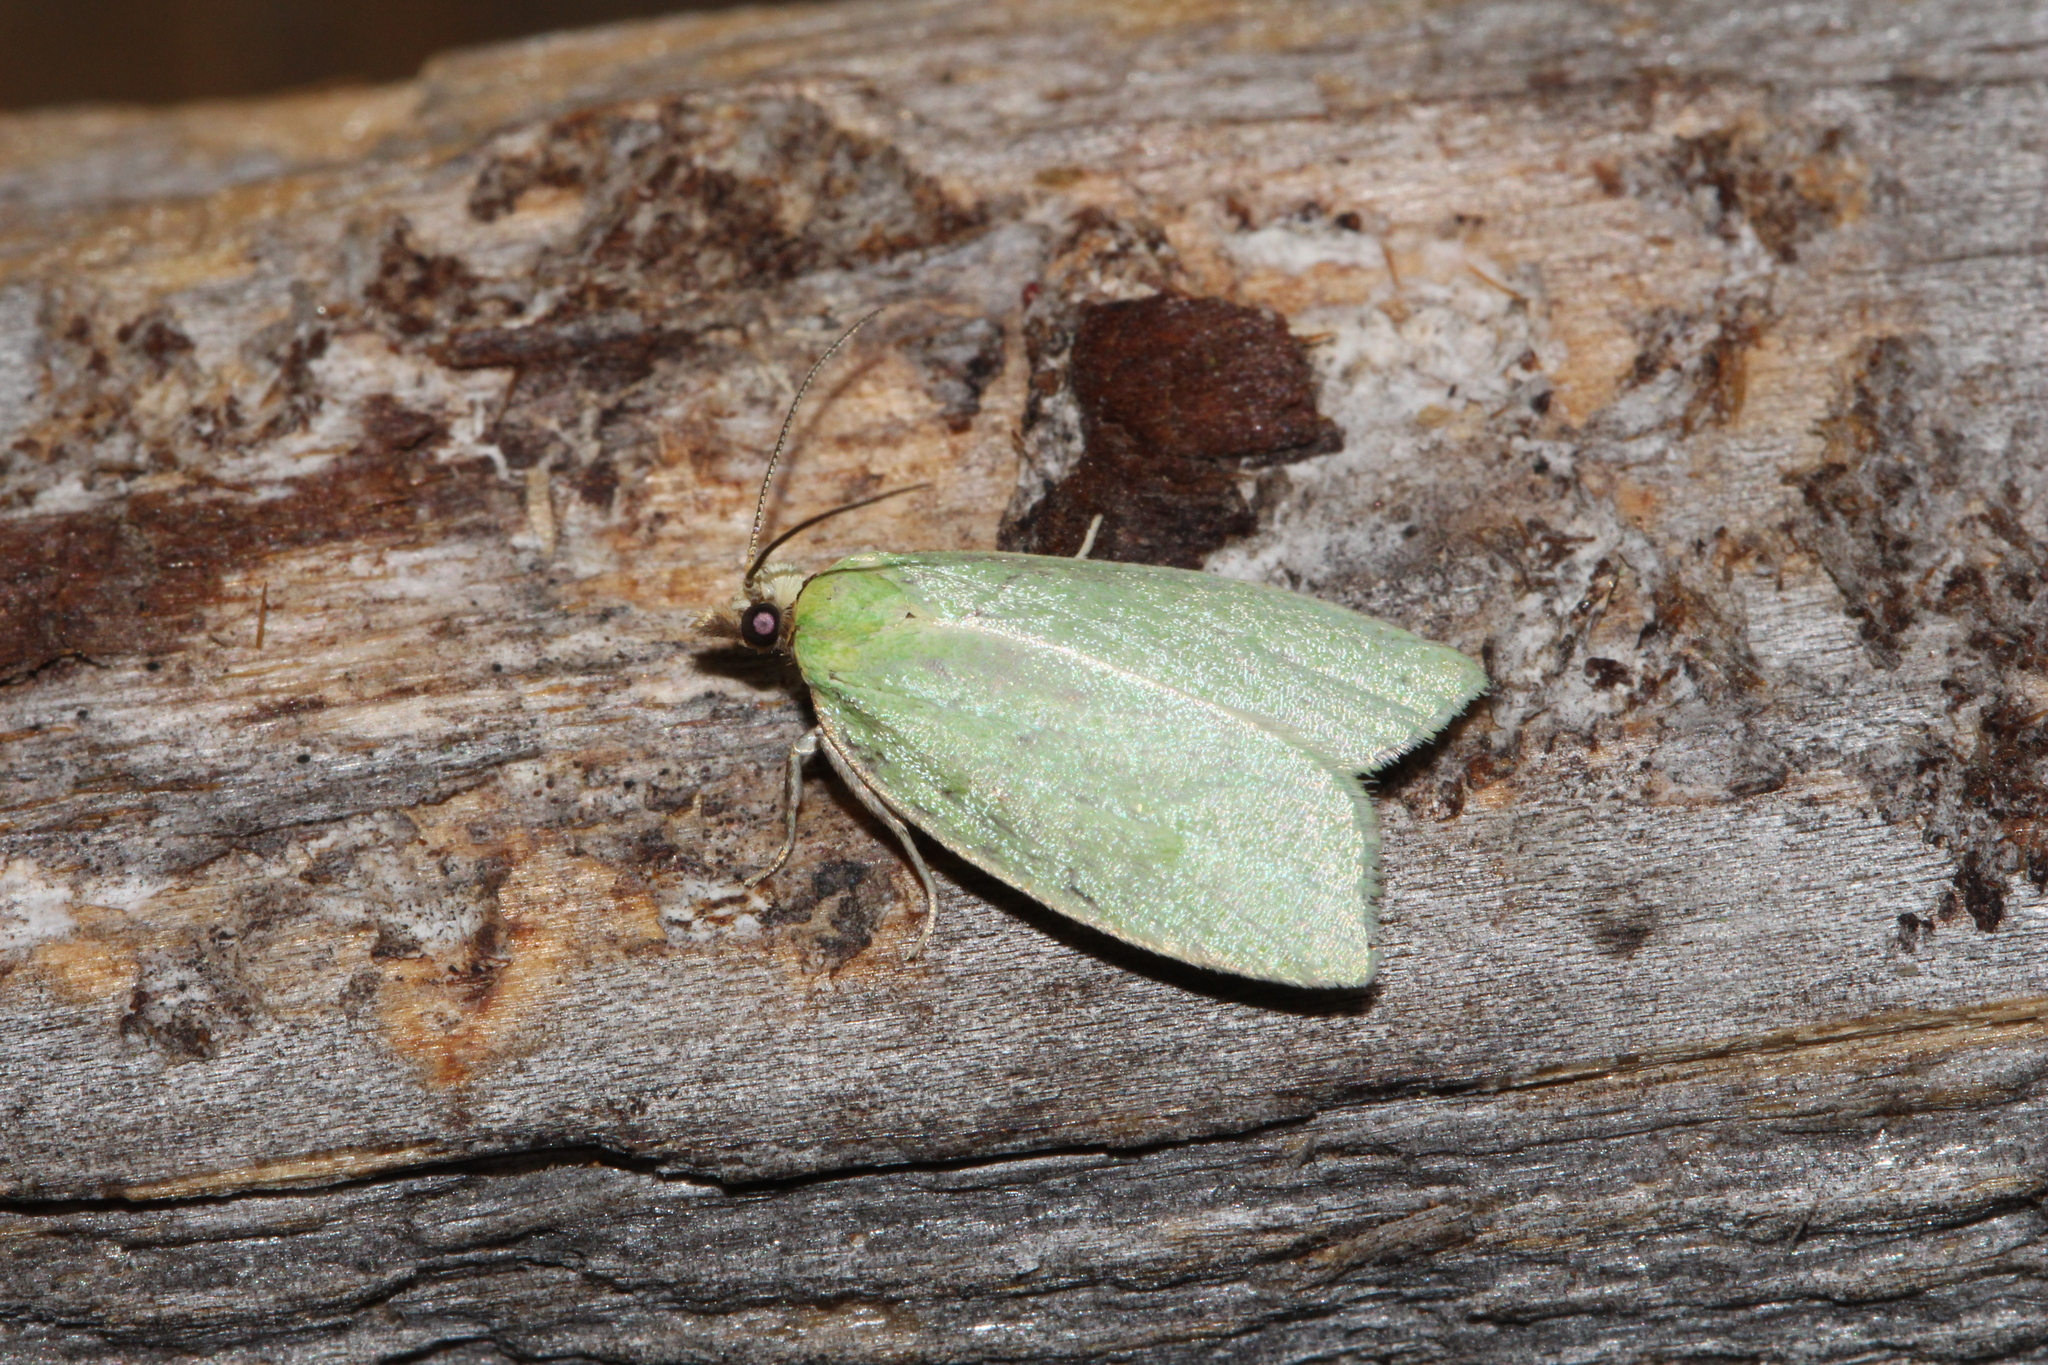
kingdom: Animalia
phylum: Arthropoda
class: Insecta
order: Lepidoptera
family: Tortricidae
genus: Tortrix
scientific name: Tortrix viridana
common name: Green oak tortrix
